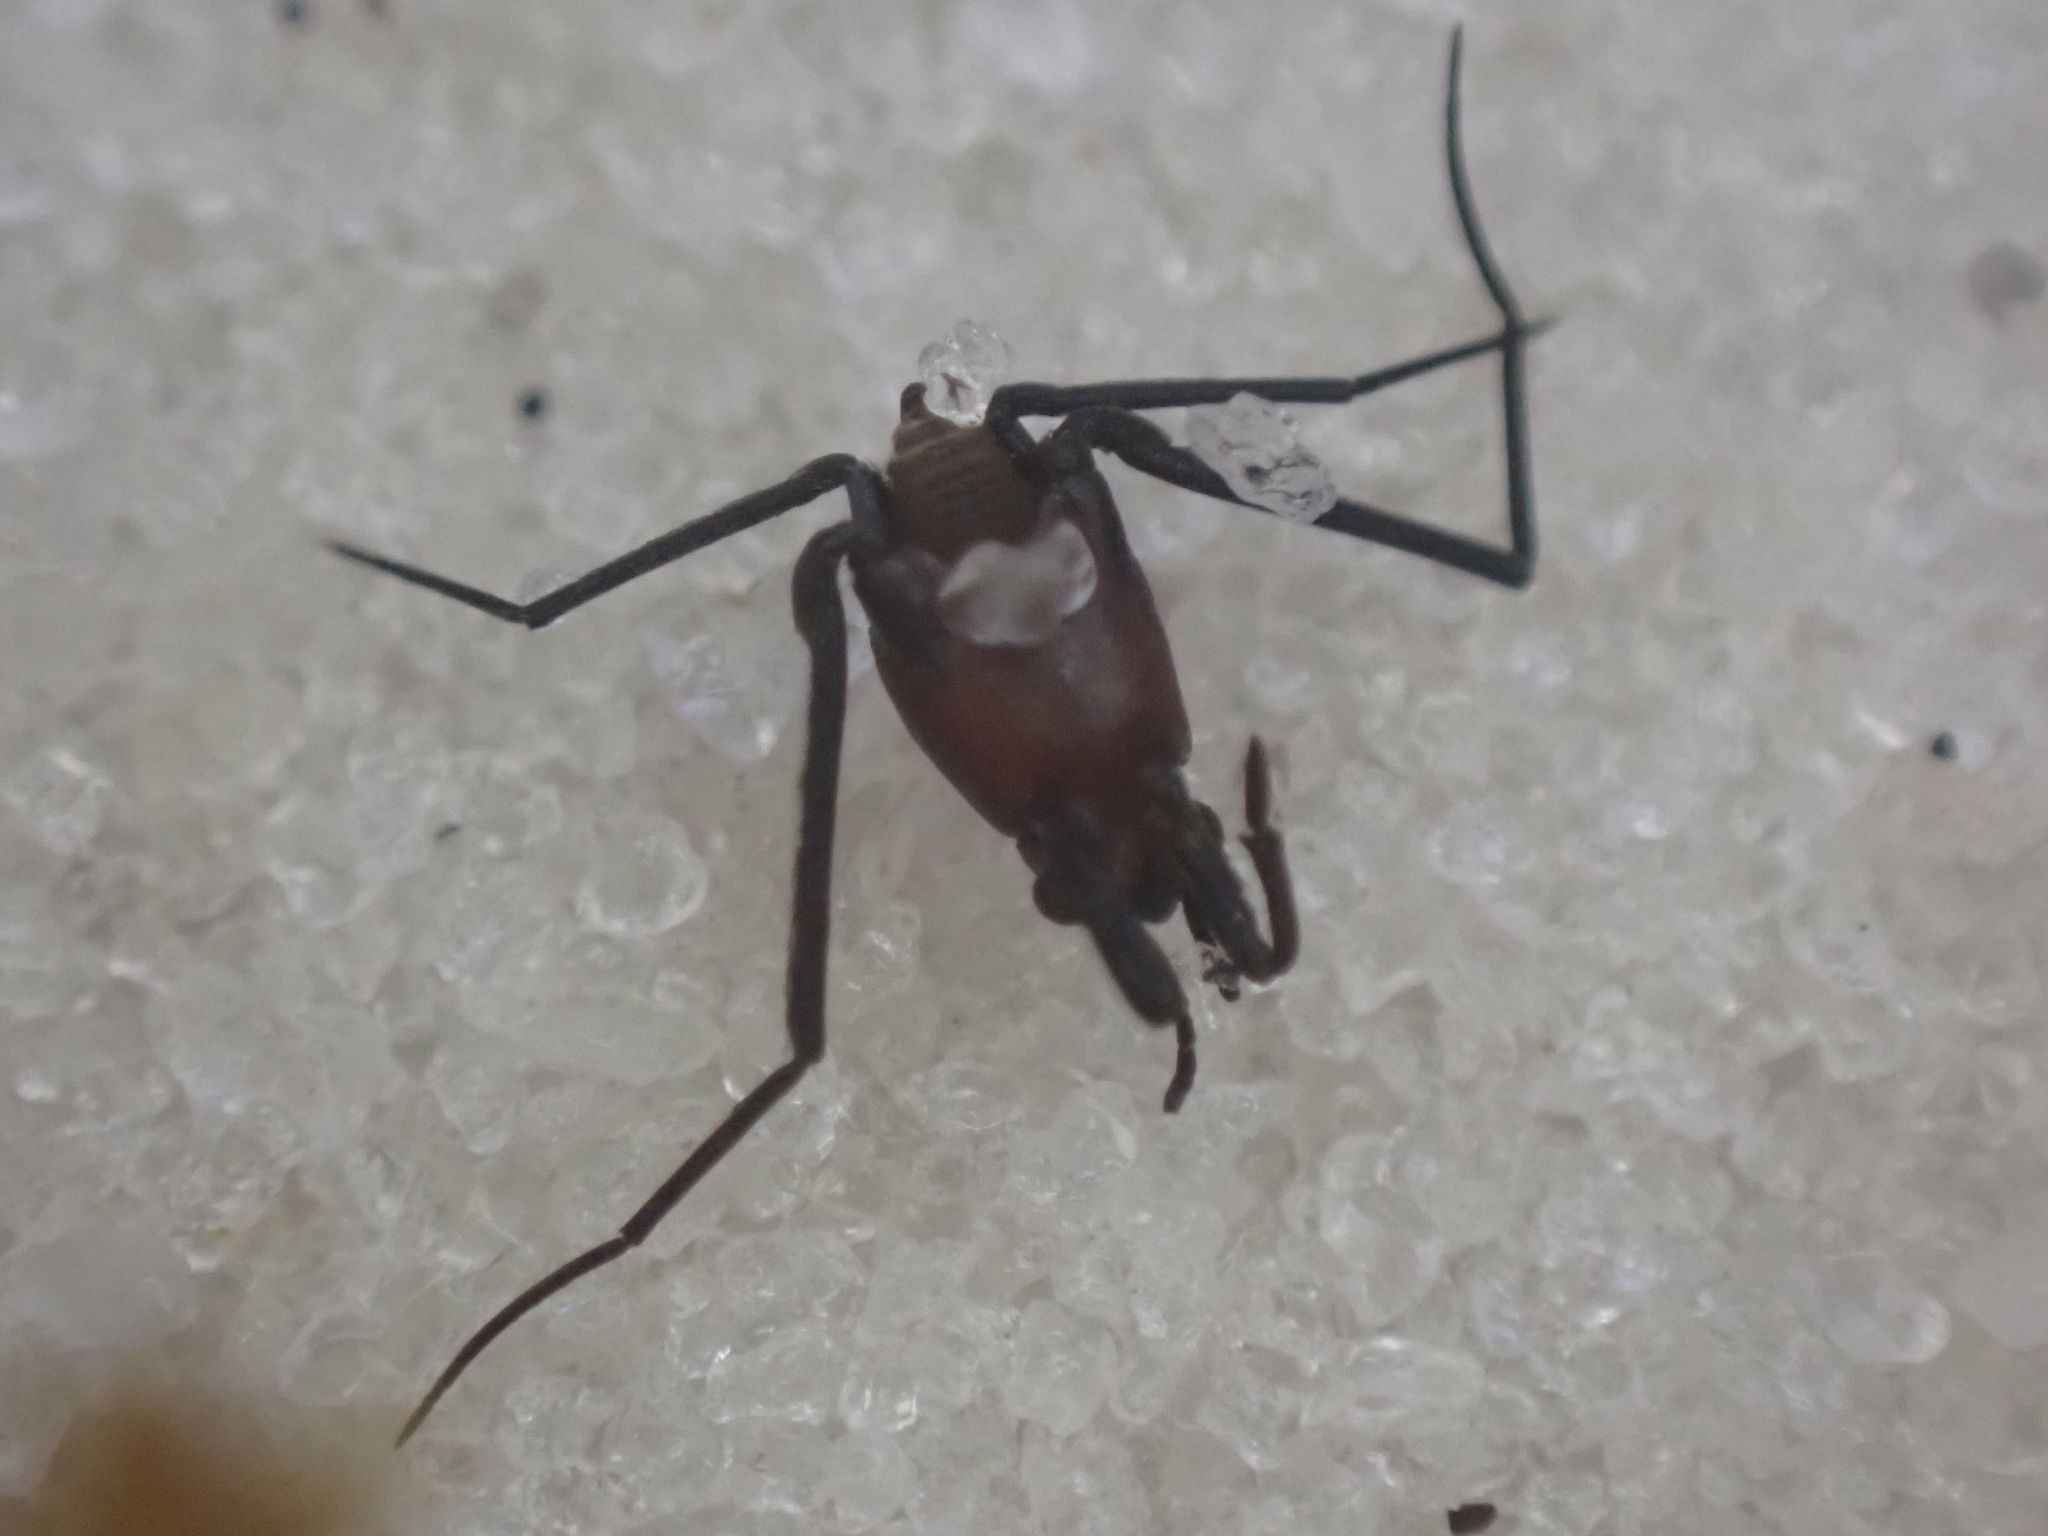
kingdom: Animalia
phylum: Arthropoda
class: Insecta
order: Hemiptera
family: Gerridae
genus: Halobates
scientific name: Halobates micans
